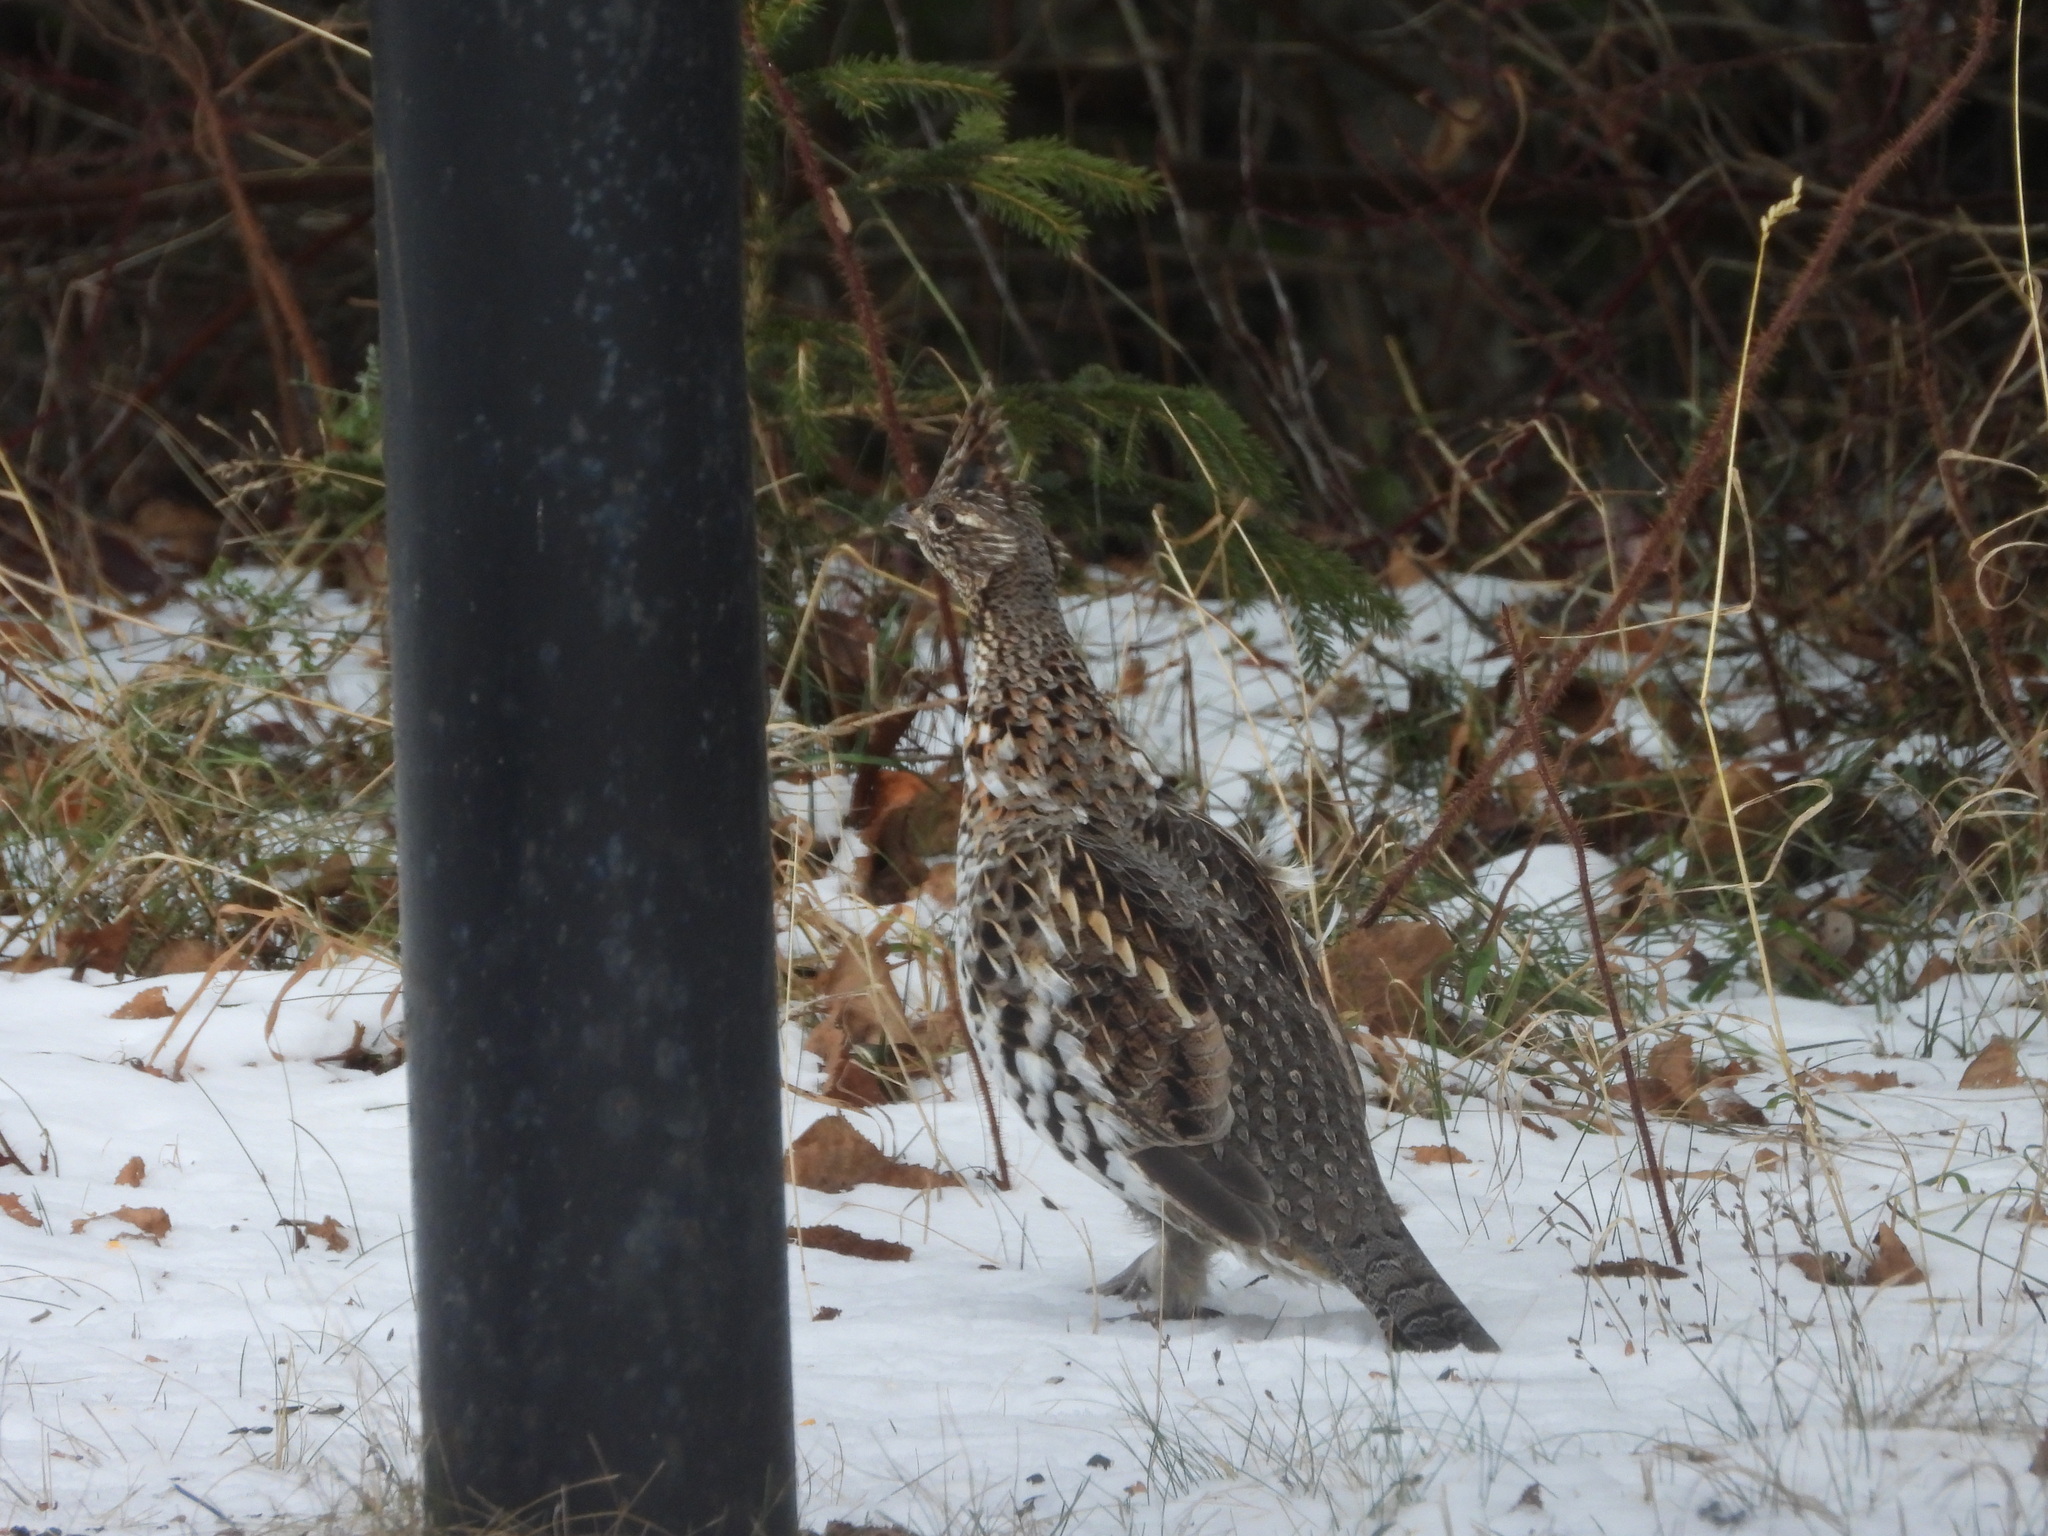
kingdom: Animalia
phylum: Chordata
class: Aves
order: Galliformes
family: Phasianidae
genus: Bonasa
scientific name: Bonasa umbellus
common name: Ruffed grouse
